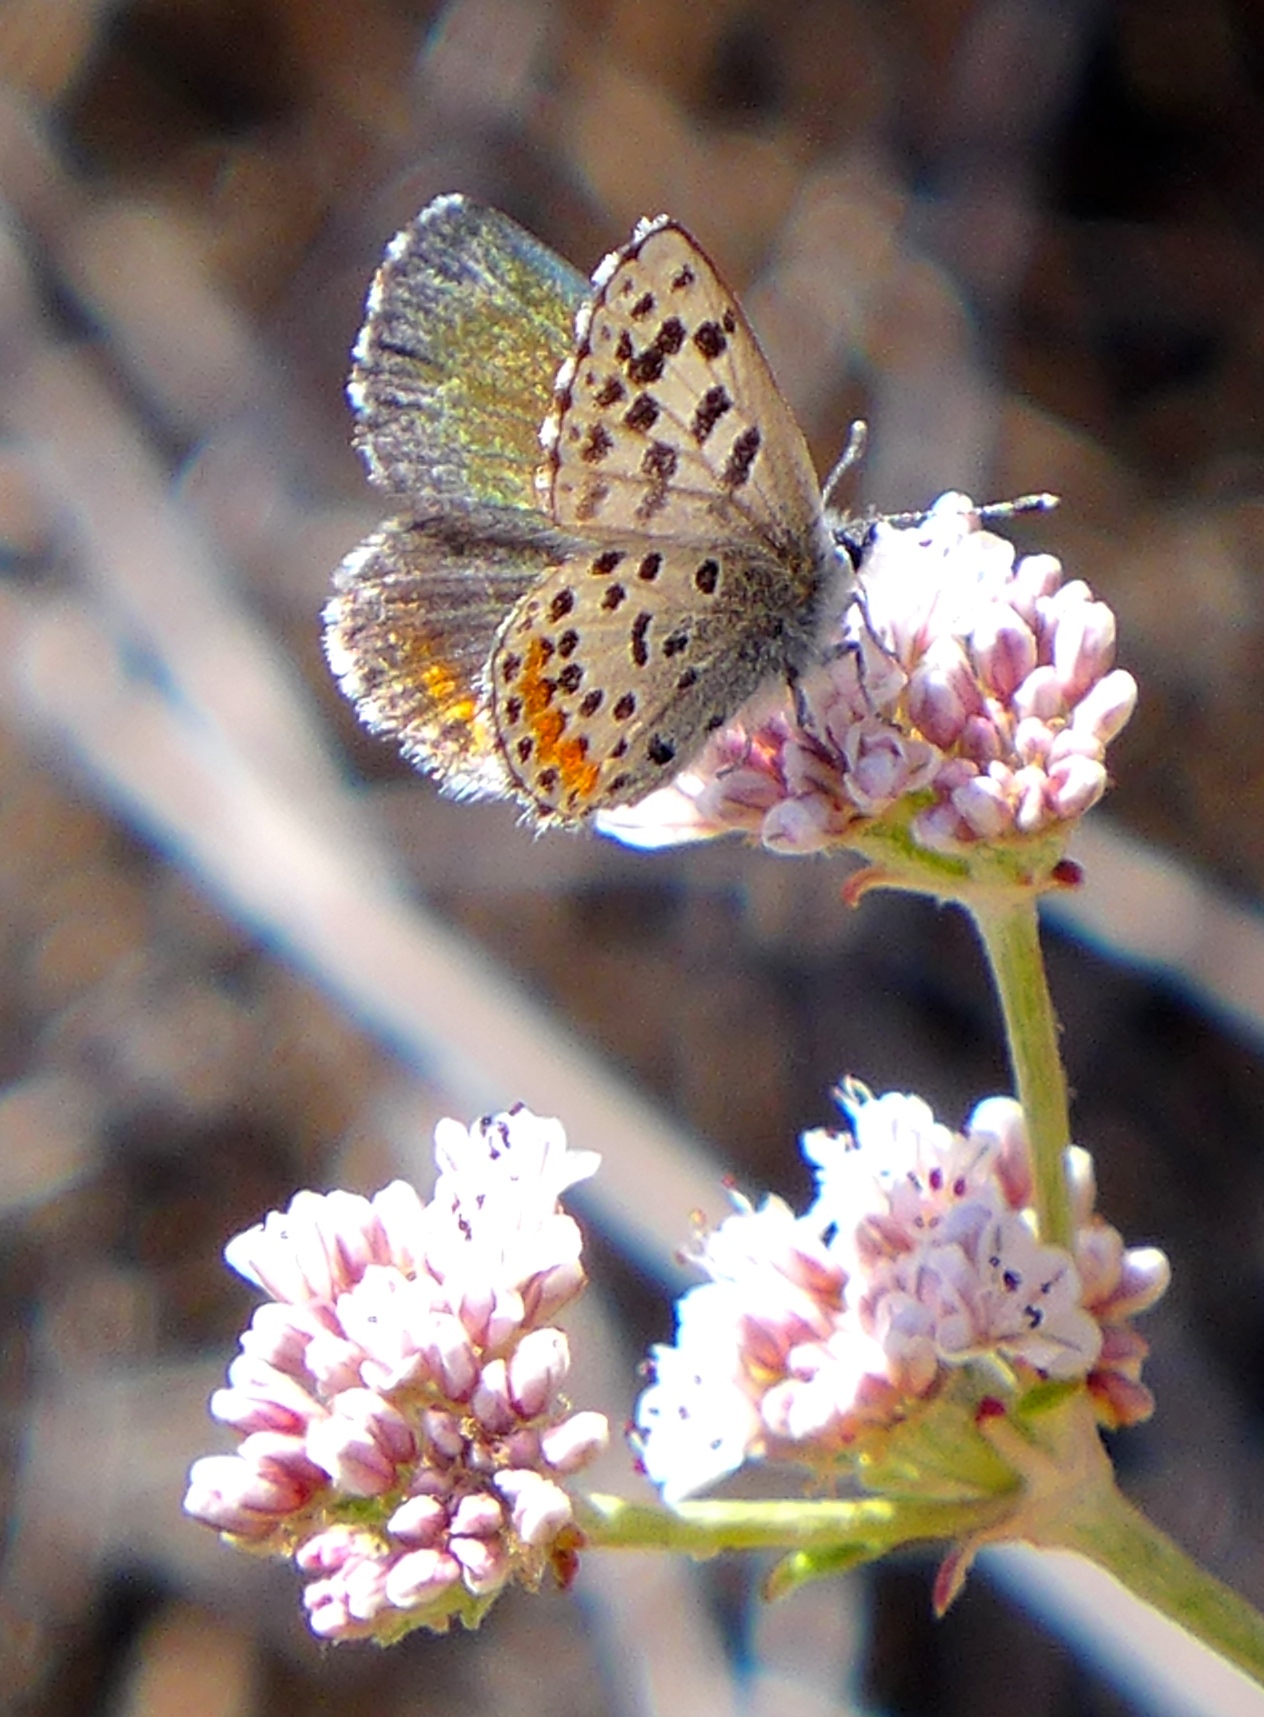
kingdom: Animalia
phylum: Arthropoda
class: Insecta
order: Lepidoptera
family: Lycaenidae
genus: Euphilotes
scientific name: Euphilotes enoptes
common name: Dotted blue
